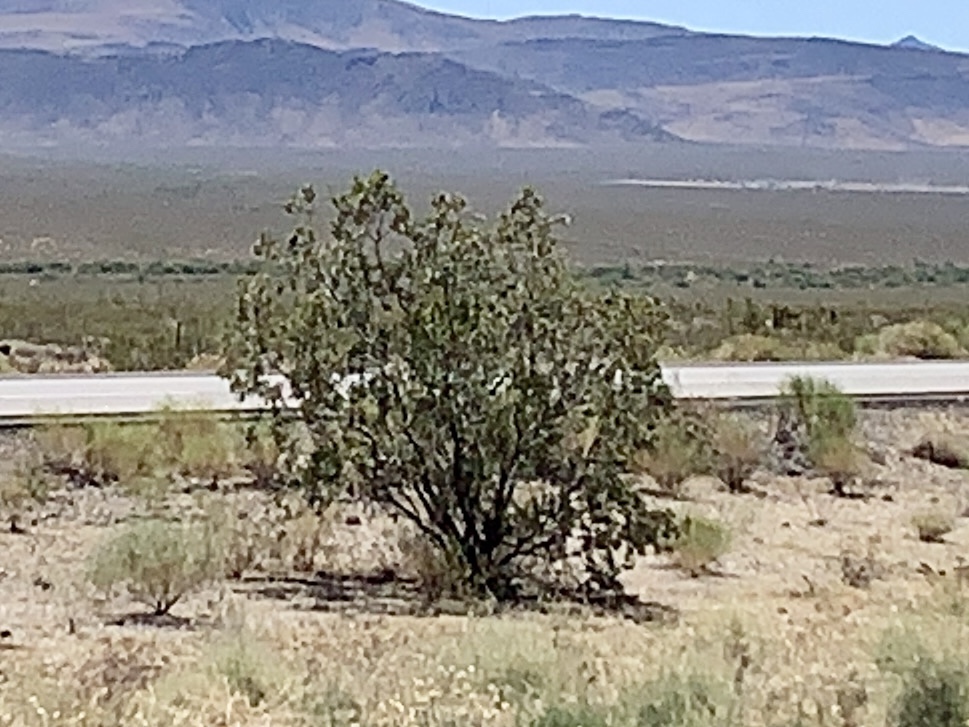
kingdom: Plantae
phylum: Tracheophyta
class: Magnoliopsida
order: Zygophyllales
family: Zygophyllaceae
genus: Larrea
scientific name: Larrea tridentata
